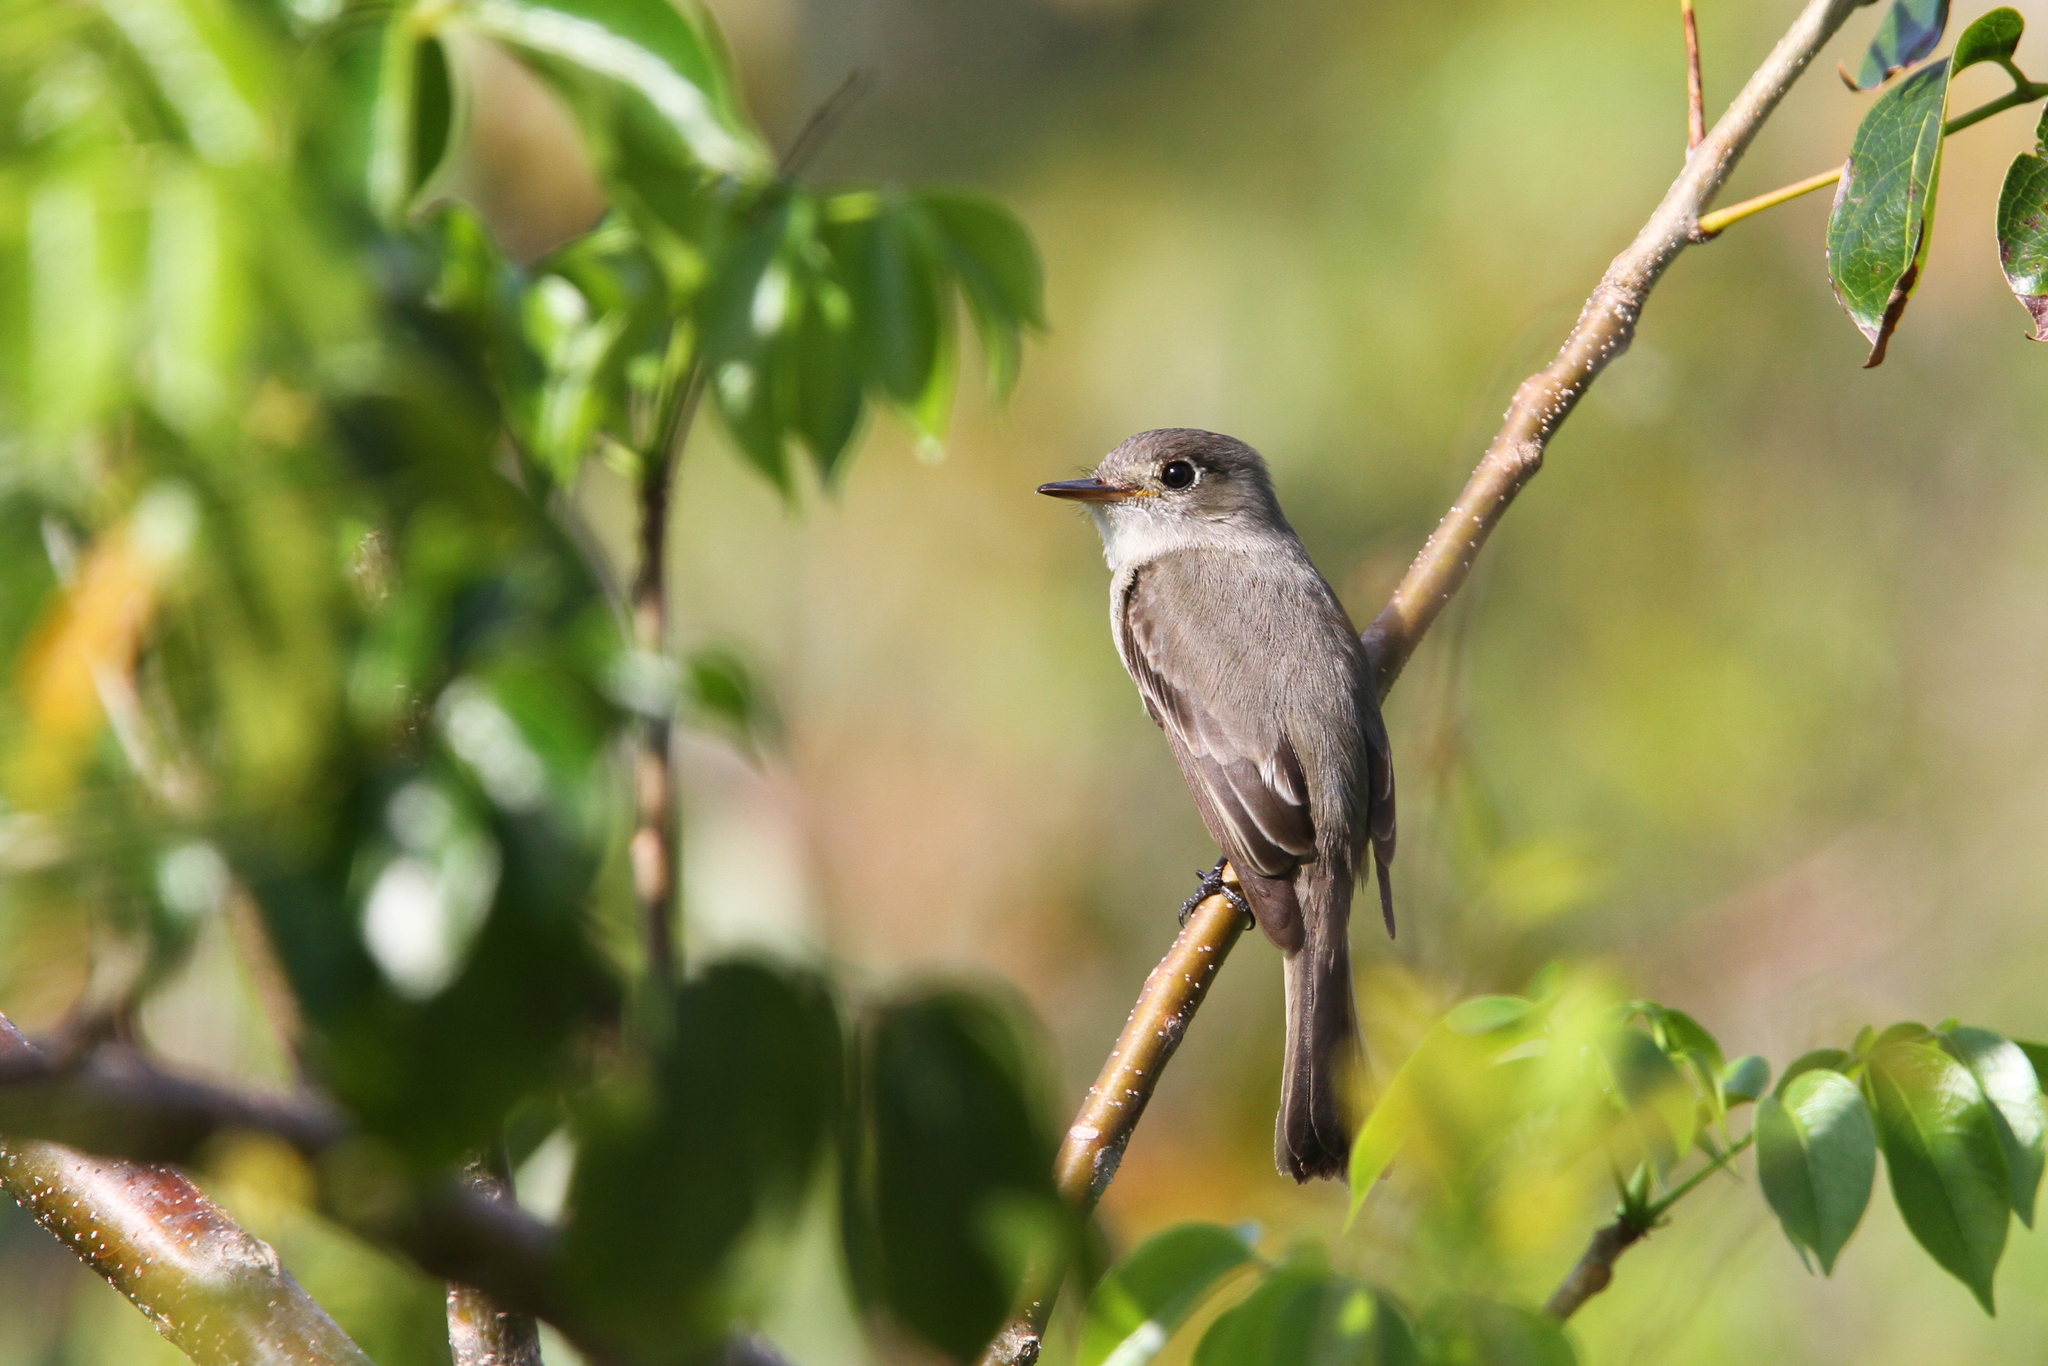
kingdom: Animalia
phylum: Chordata
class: Aves
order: Passeriformes
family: Tyrannidae
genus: Contopus
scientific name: Contopus caribaeus
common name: Cuban pewee
